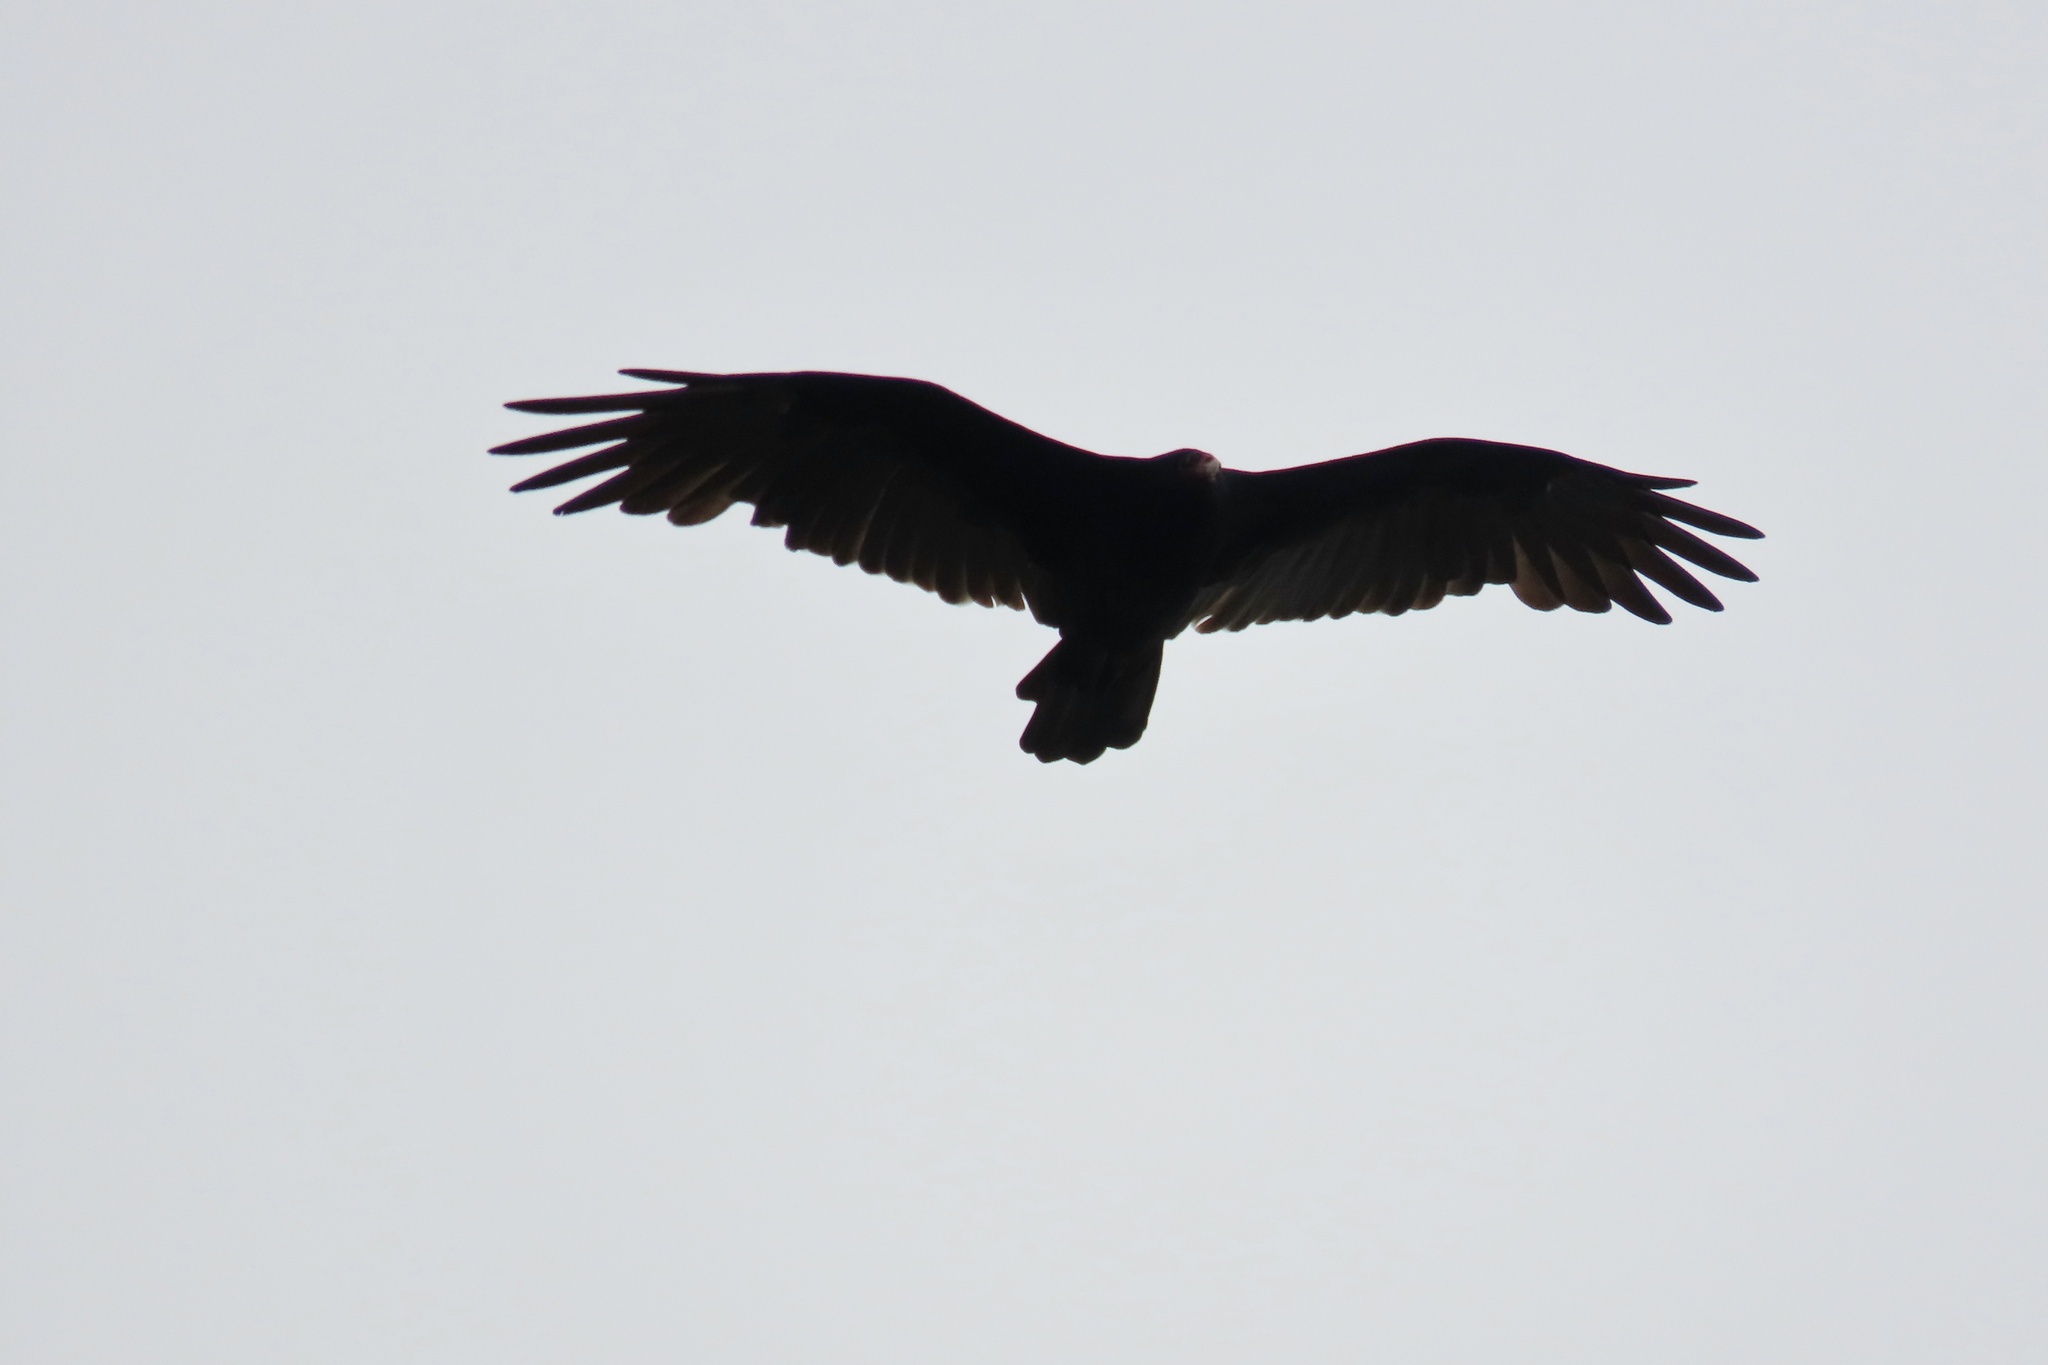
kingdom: Animalia
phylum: Chordata
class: Aves
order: Accipitriformes
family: Cathartidae
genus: Cathartes
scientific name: Cathartes aura
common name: Turkey vulture
